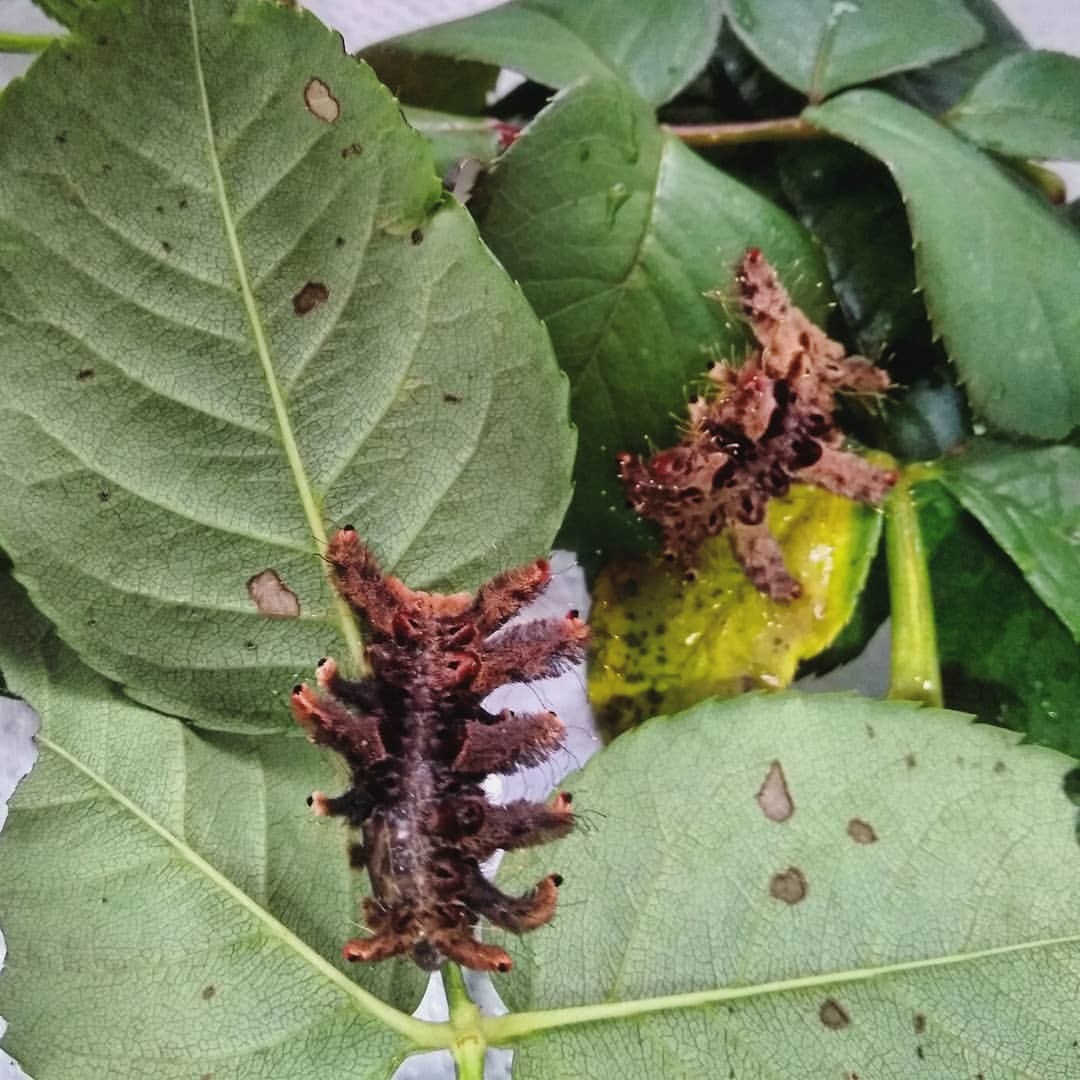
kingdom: Animalia
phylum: Arthropoda
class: Insecta
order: Lepidoptera
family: Limacodidae
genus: Phobetron
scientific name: Phobetron hipparchia
